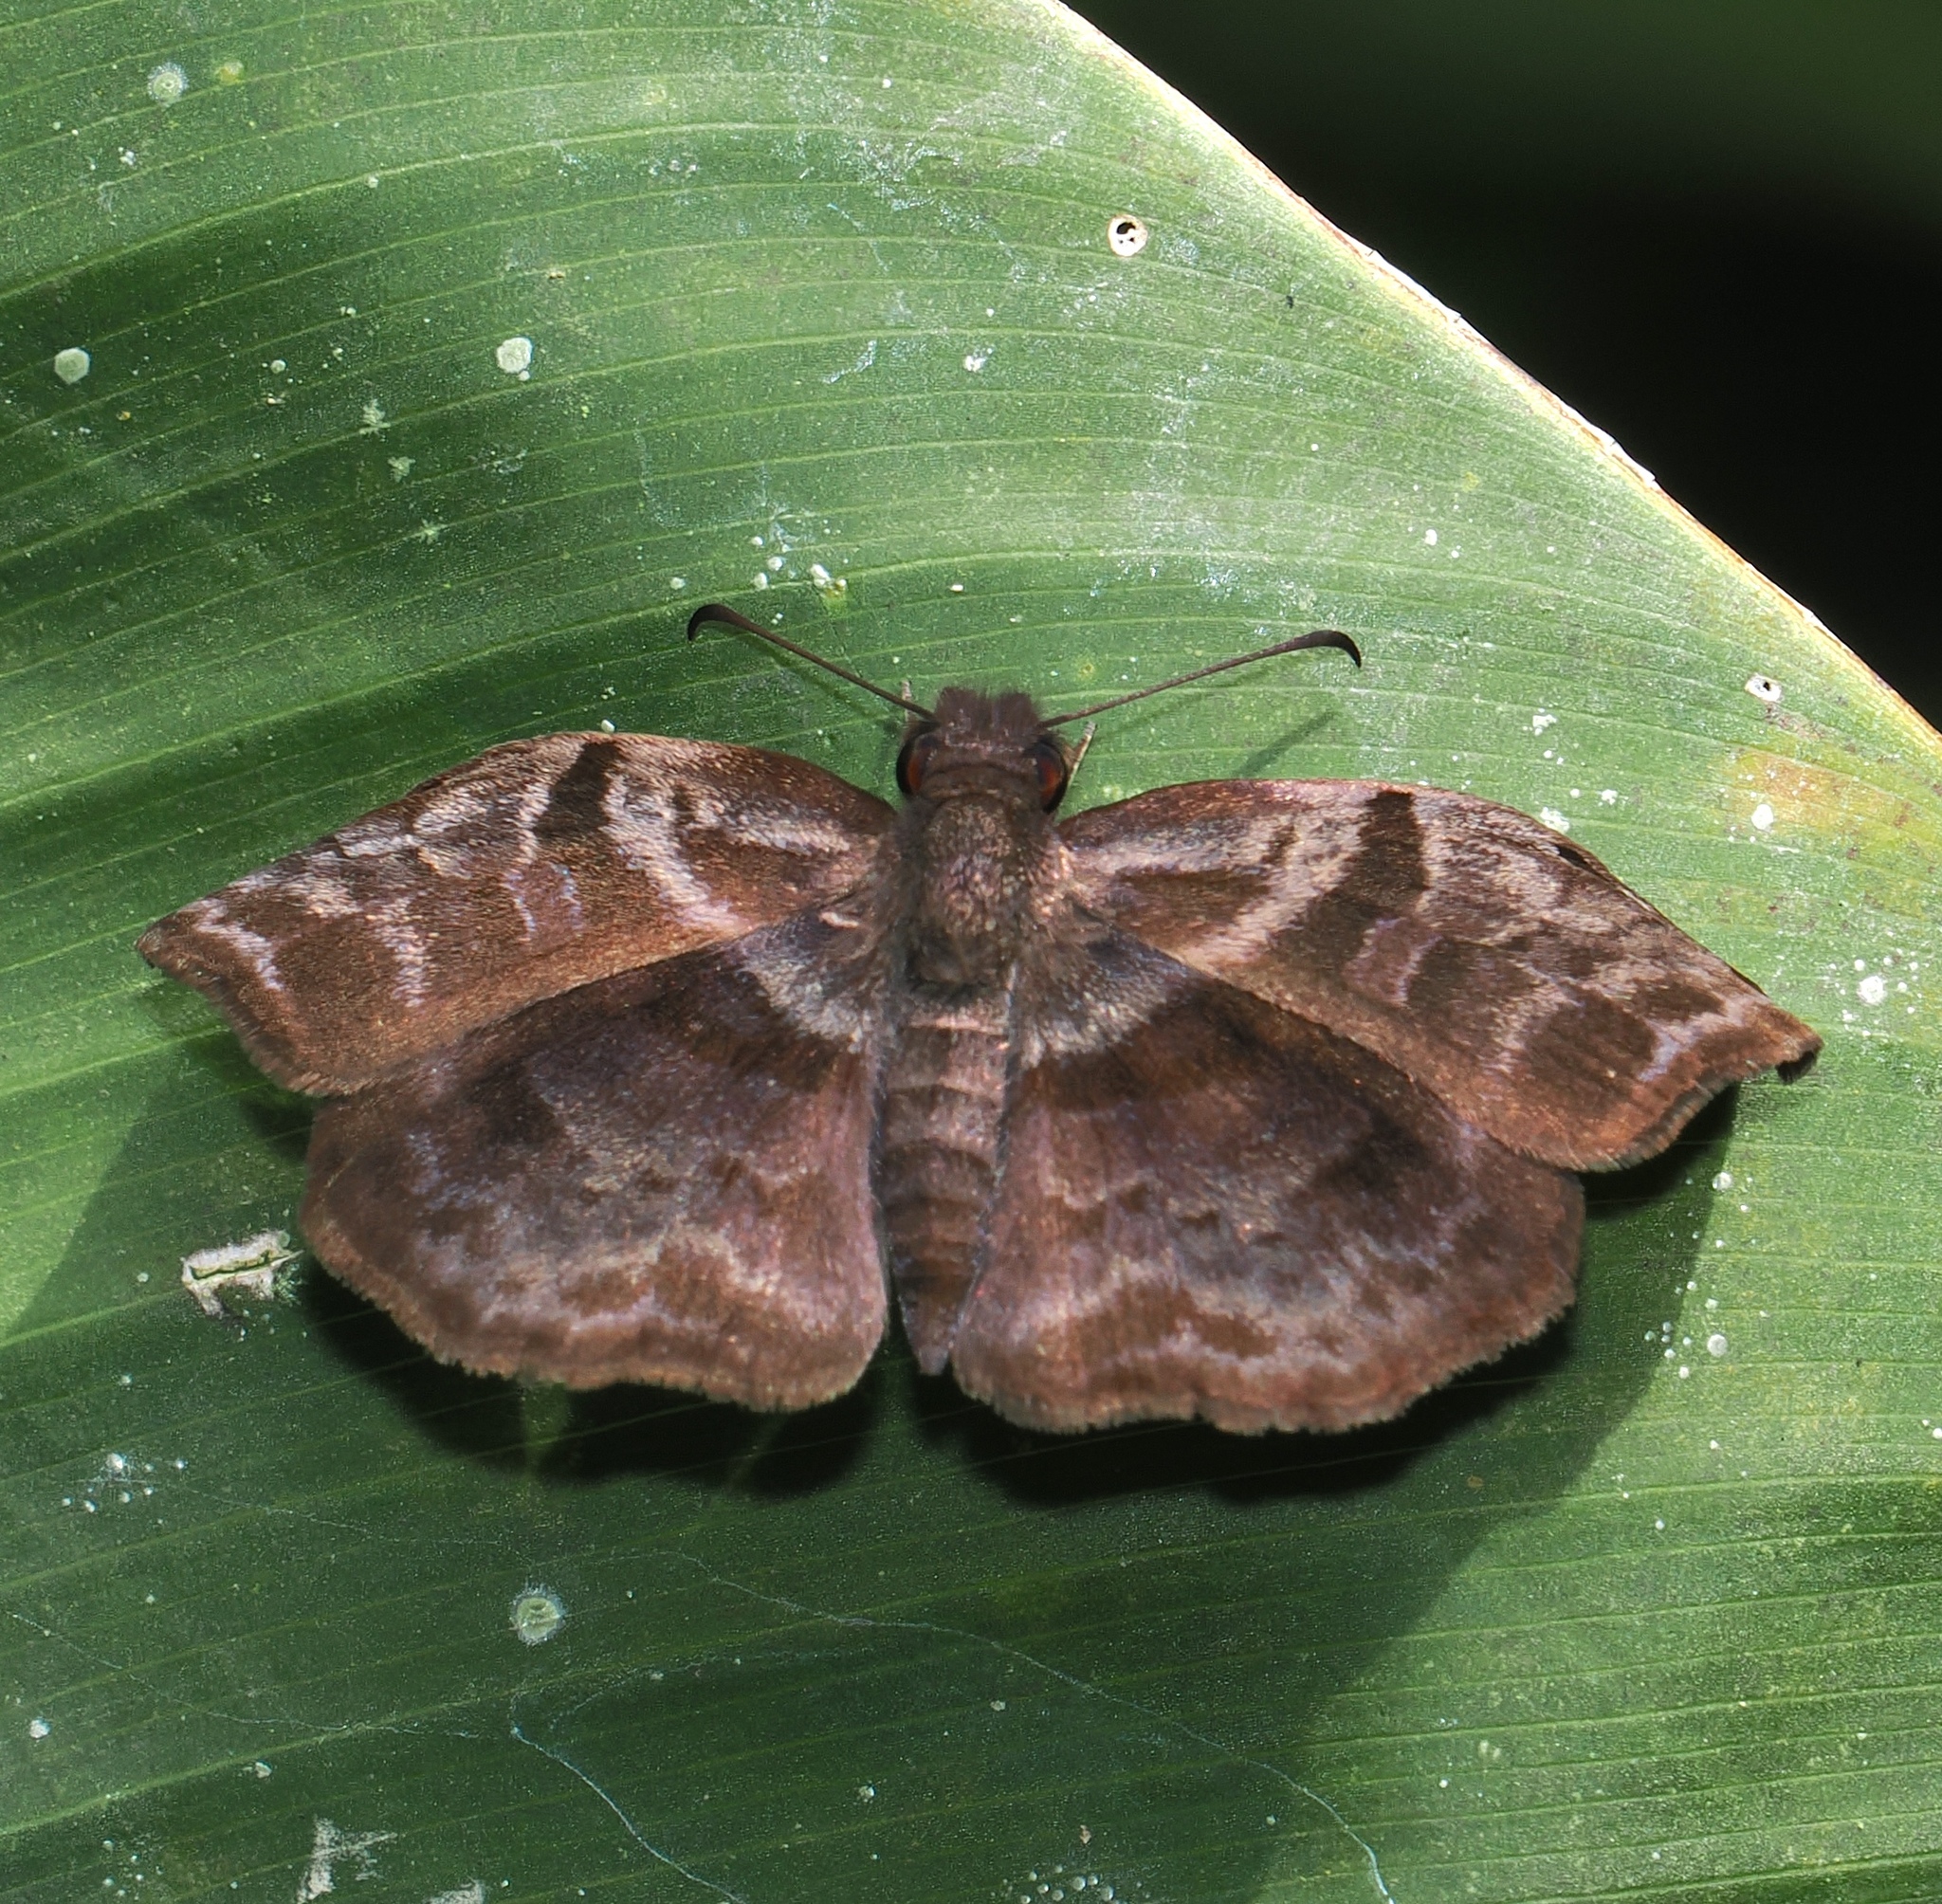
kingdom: Animalia
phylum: Arthropoda
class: Insecta
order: Lepidoptera
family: Hesperiidae
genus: Helias
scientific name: Helias phalaenoides
